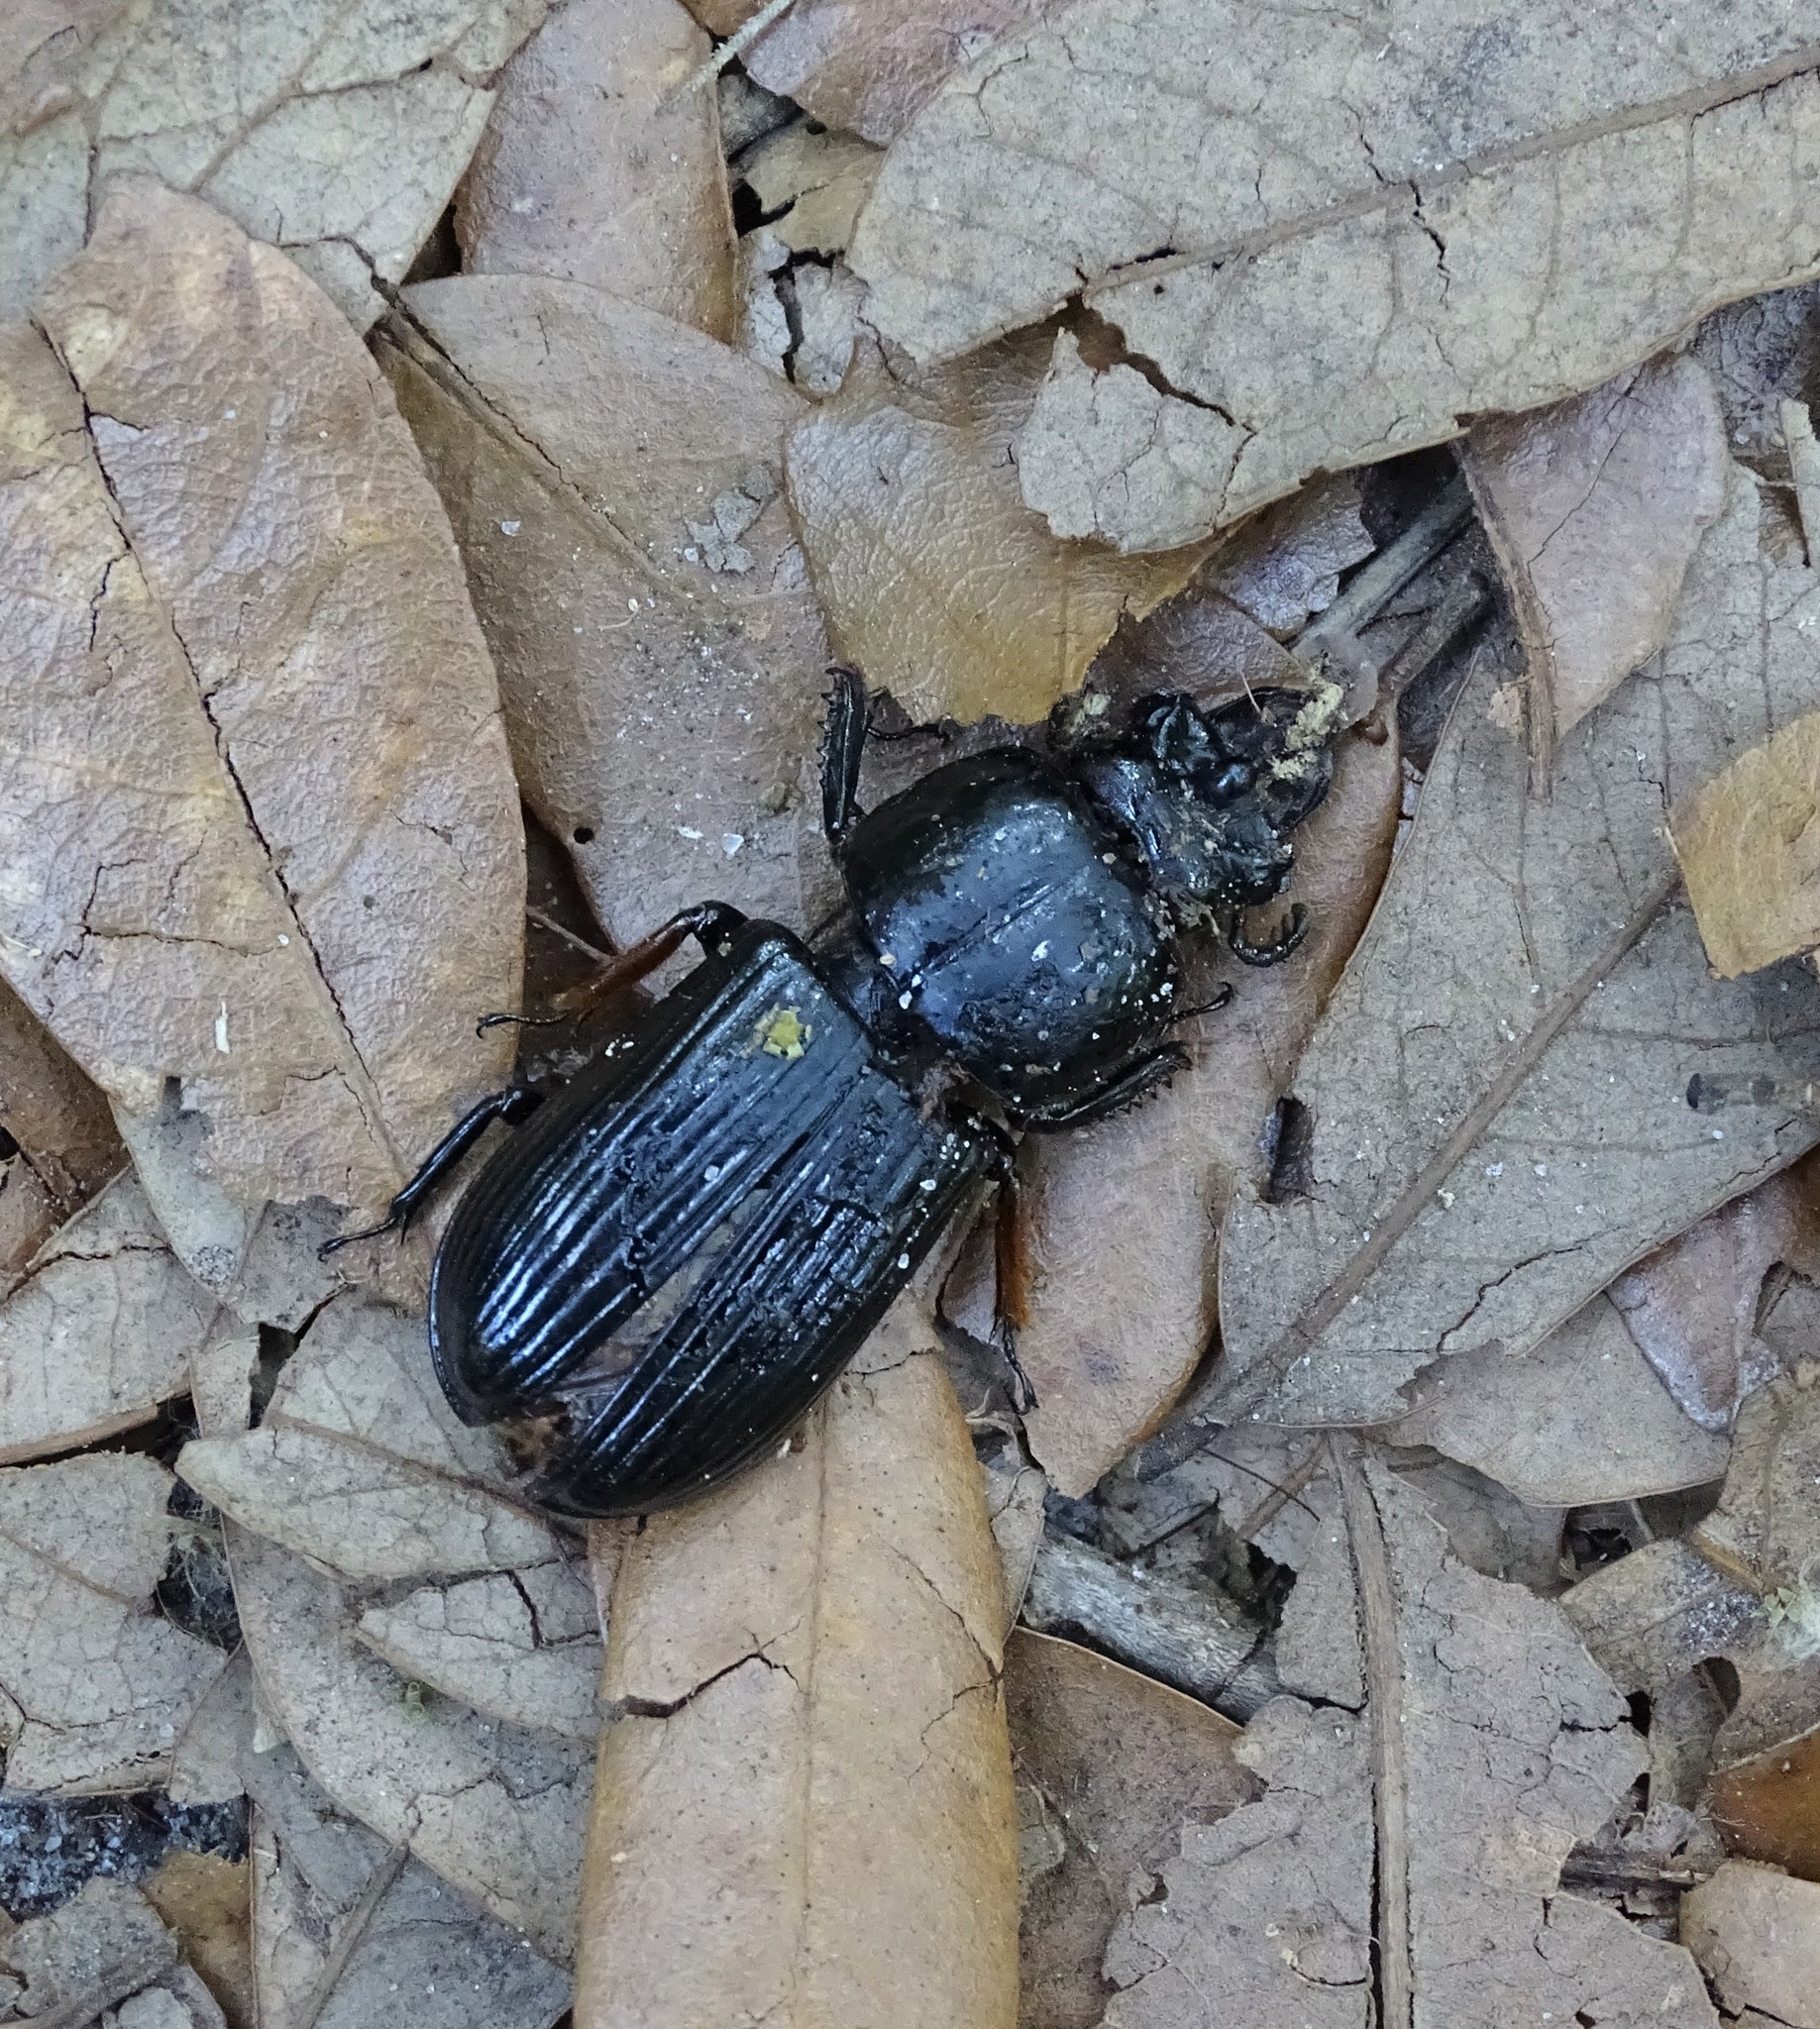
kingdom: Animalia
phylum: Arthropoda
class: Insecta
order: Coleoptera
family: Passalidae
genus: Odontotaenius
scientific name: Odontotaenius disjunctus
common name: Patent leather beetle
